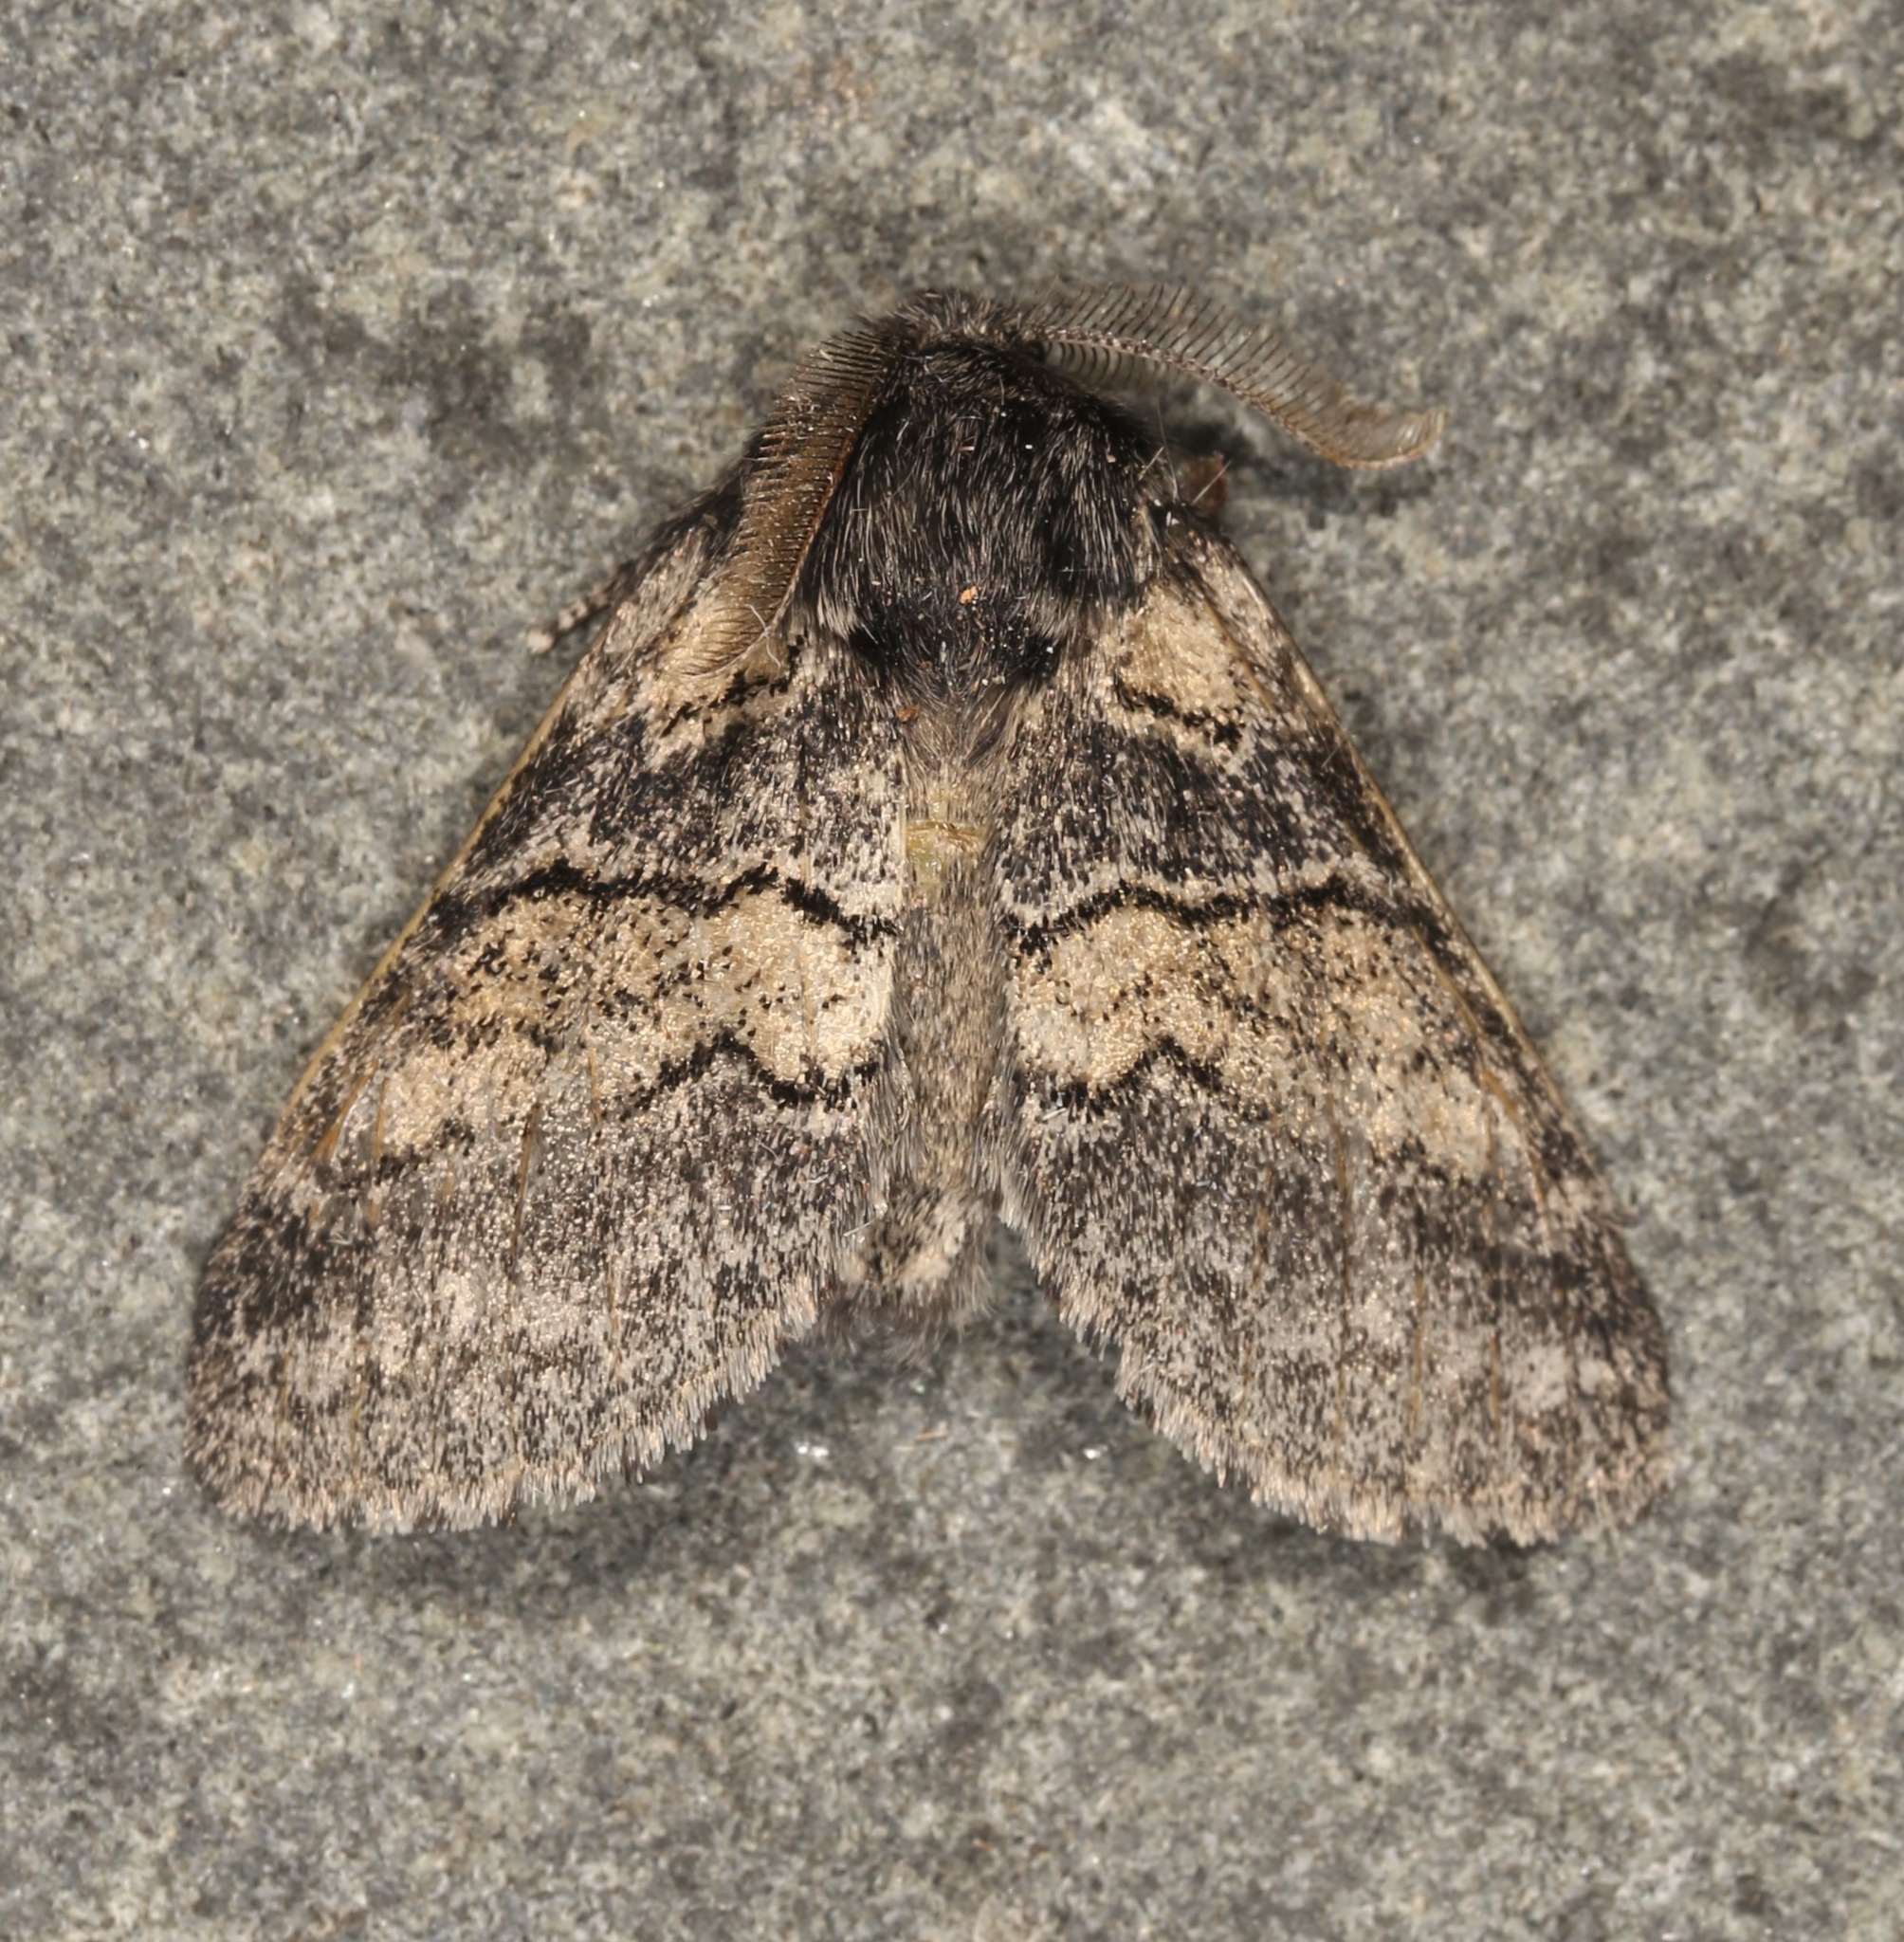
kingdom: Animalia
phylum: Arthropoda
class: Insecta
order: Lepidoptera
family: Notodontidae
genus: Gluphisia
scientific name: Gluphisia septentrionis
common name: Common gluphisia
